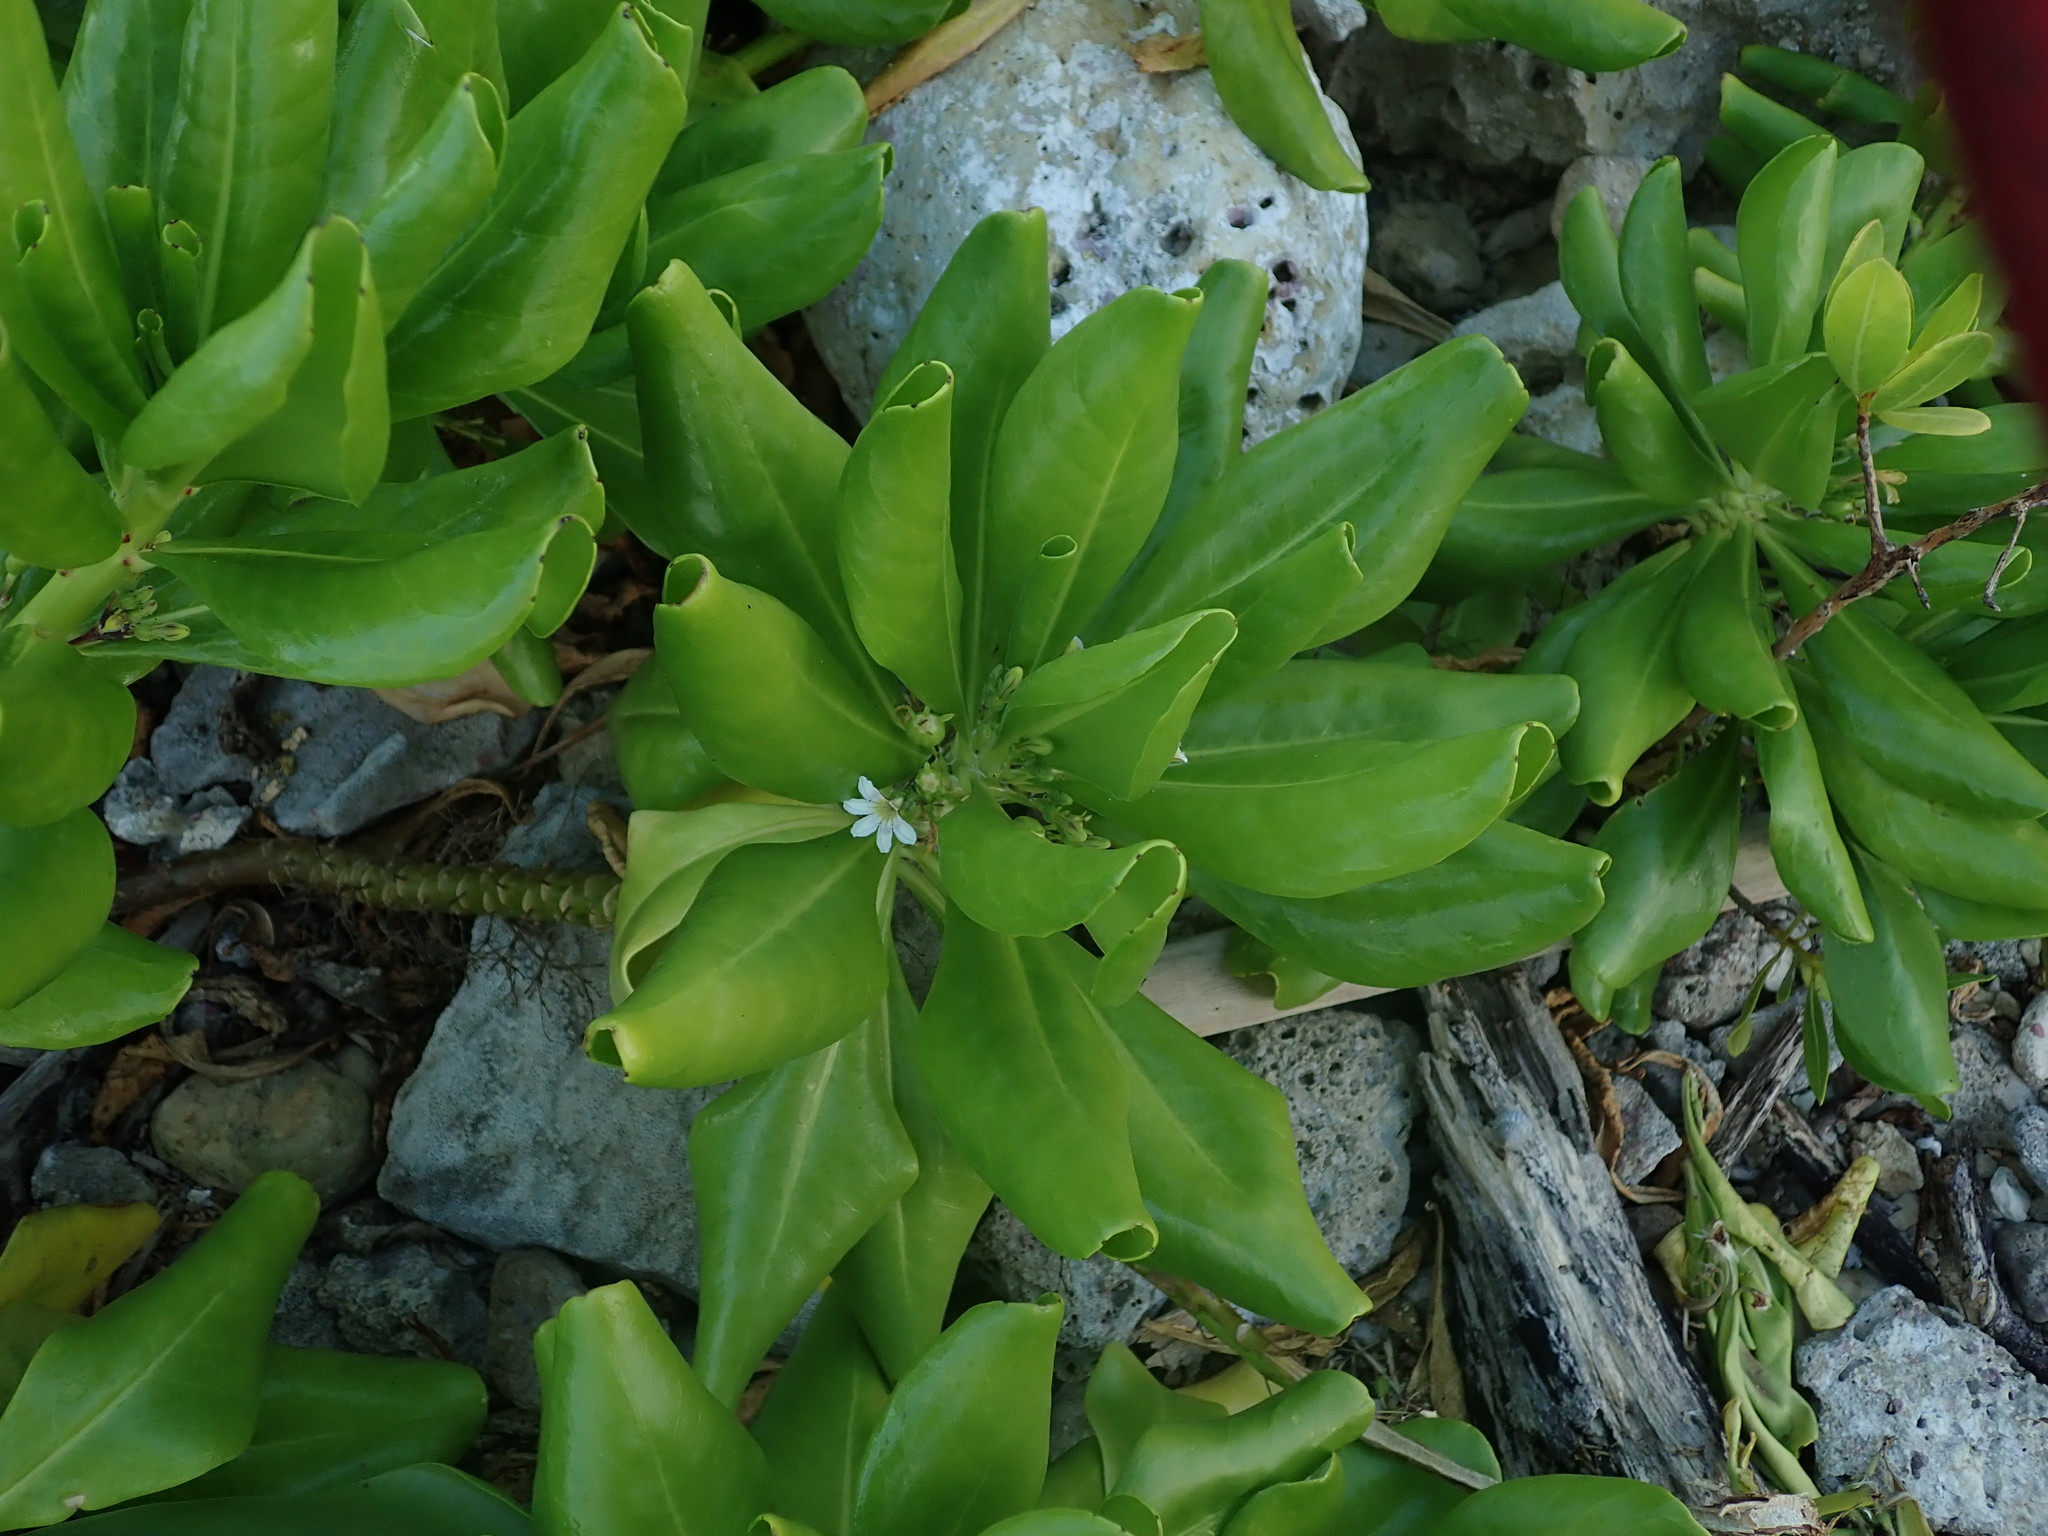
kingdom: Plantae
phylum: Tracheophyta
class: Magnoliopsida
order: Asterales
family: Goodeniaceae
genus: Scaevola
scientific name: Scaevola taccada
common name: Sea lettucetree
